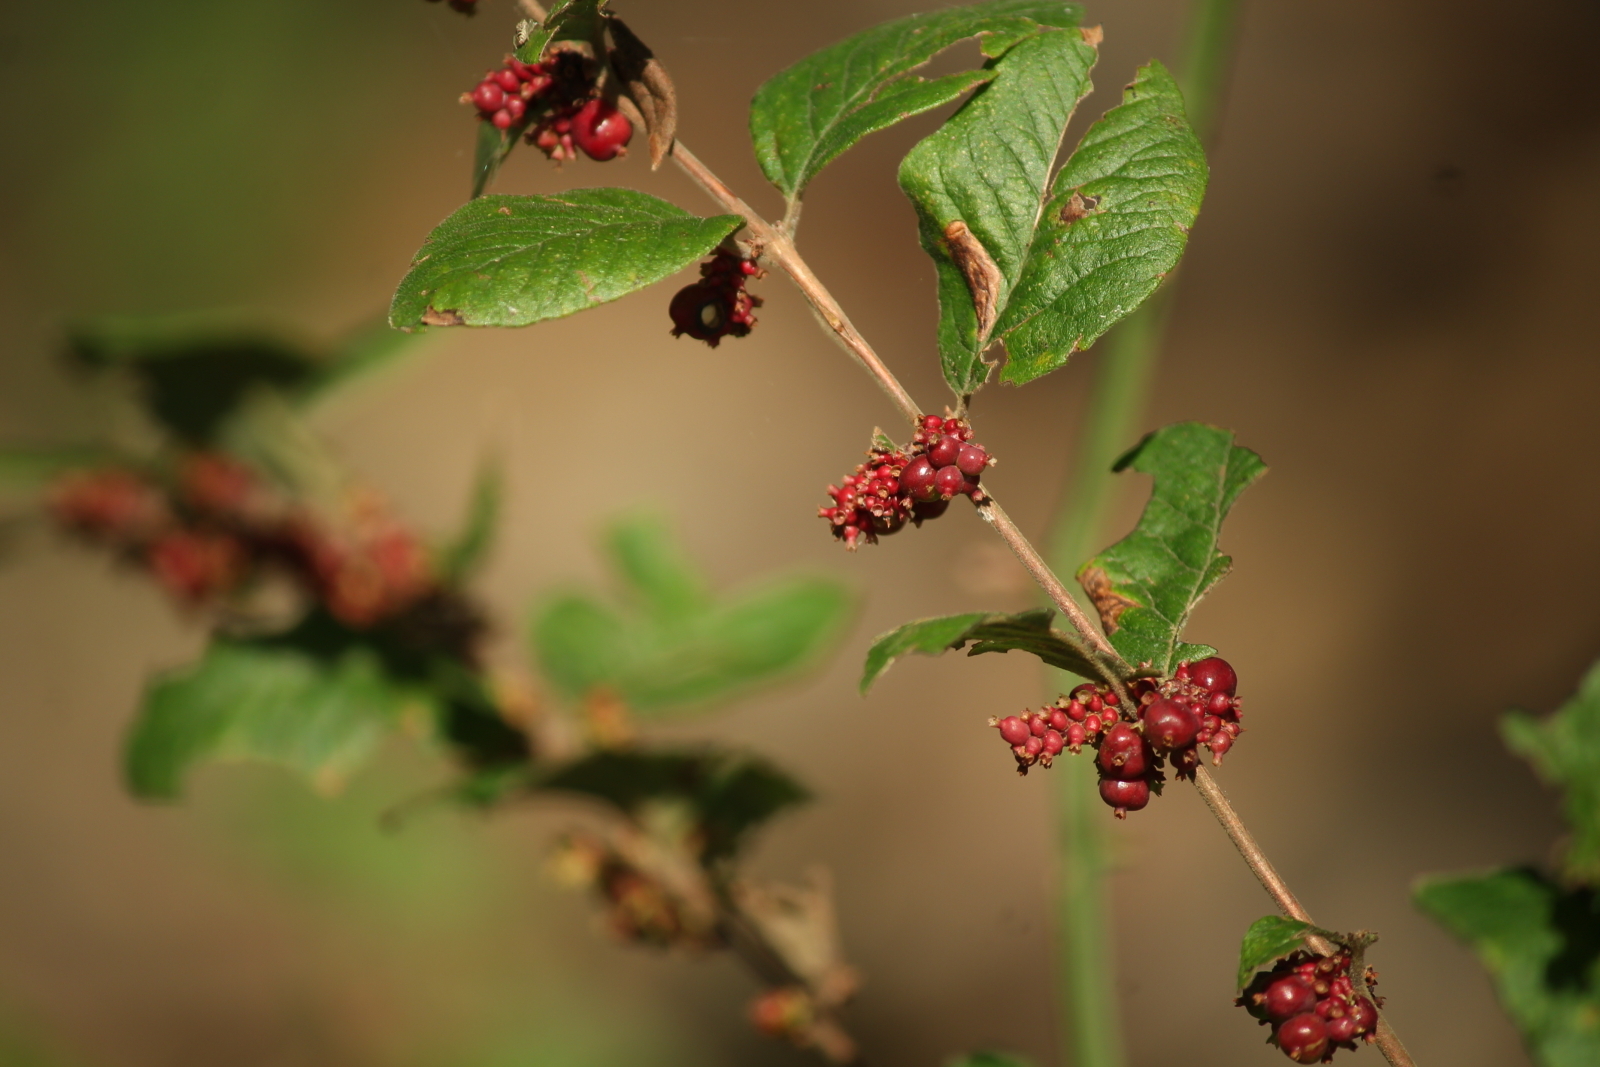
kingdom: Plantae
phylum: Tracheophyta
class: Magnoliopsida
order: Dipsacales
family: Caprifoliaceae
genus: Symphoricarpos
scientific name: Symphoricarpos orbiculatus
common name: Coralberry
